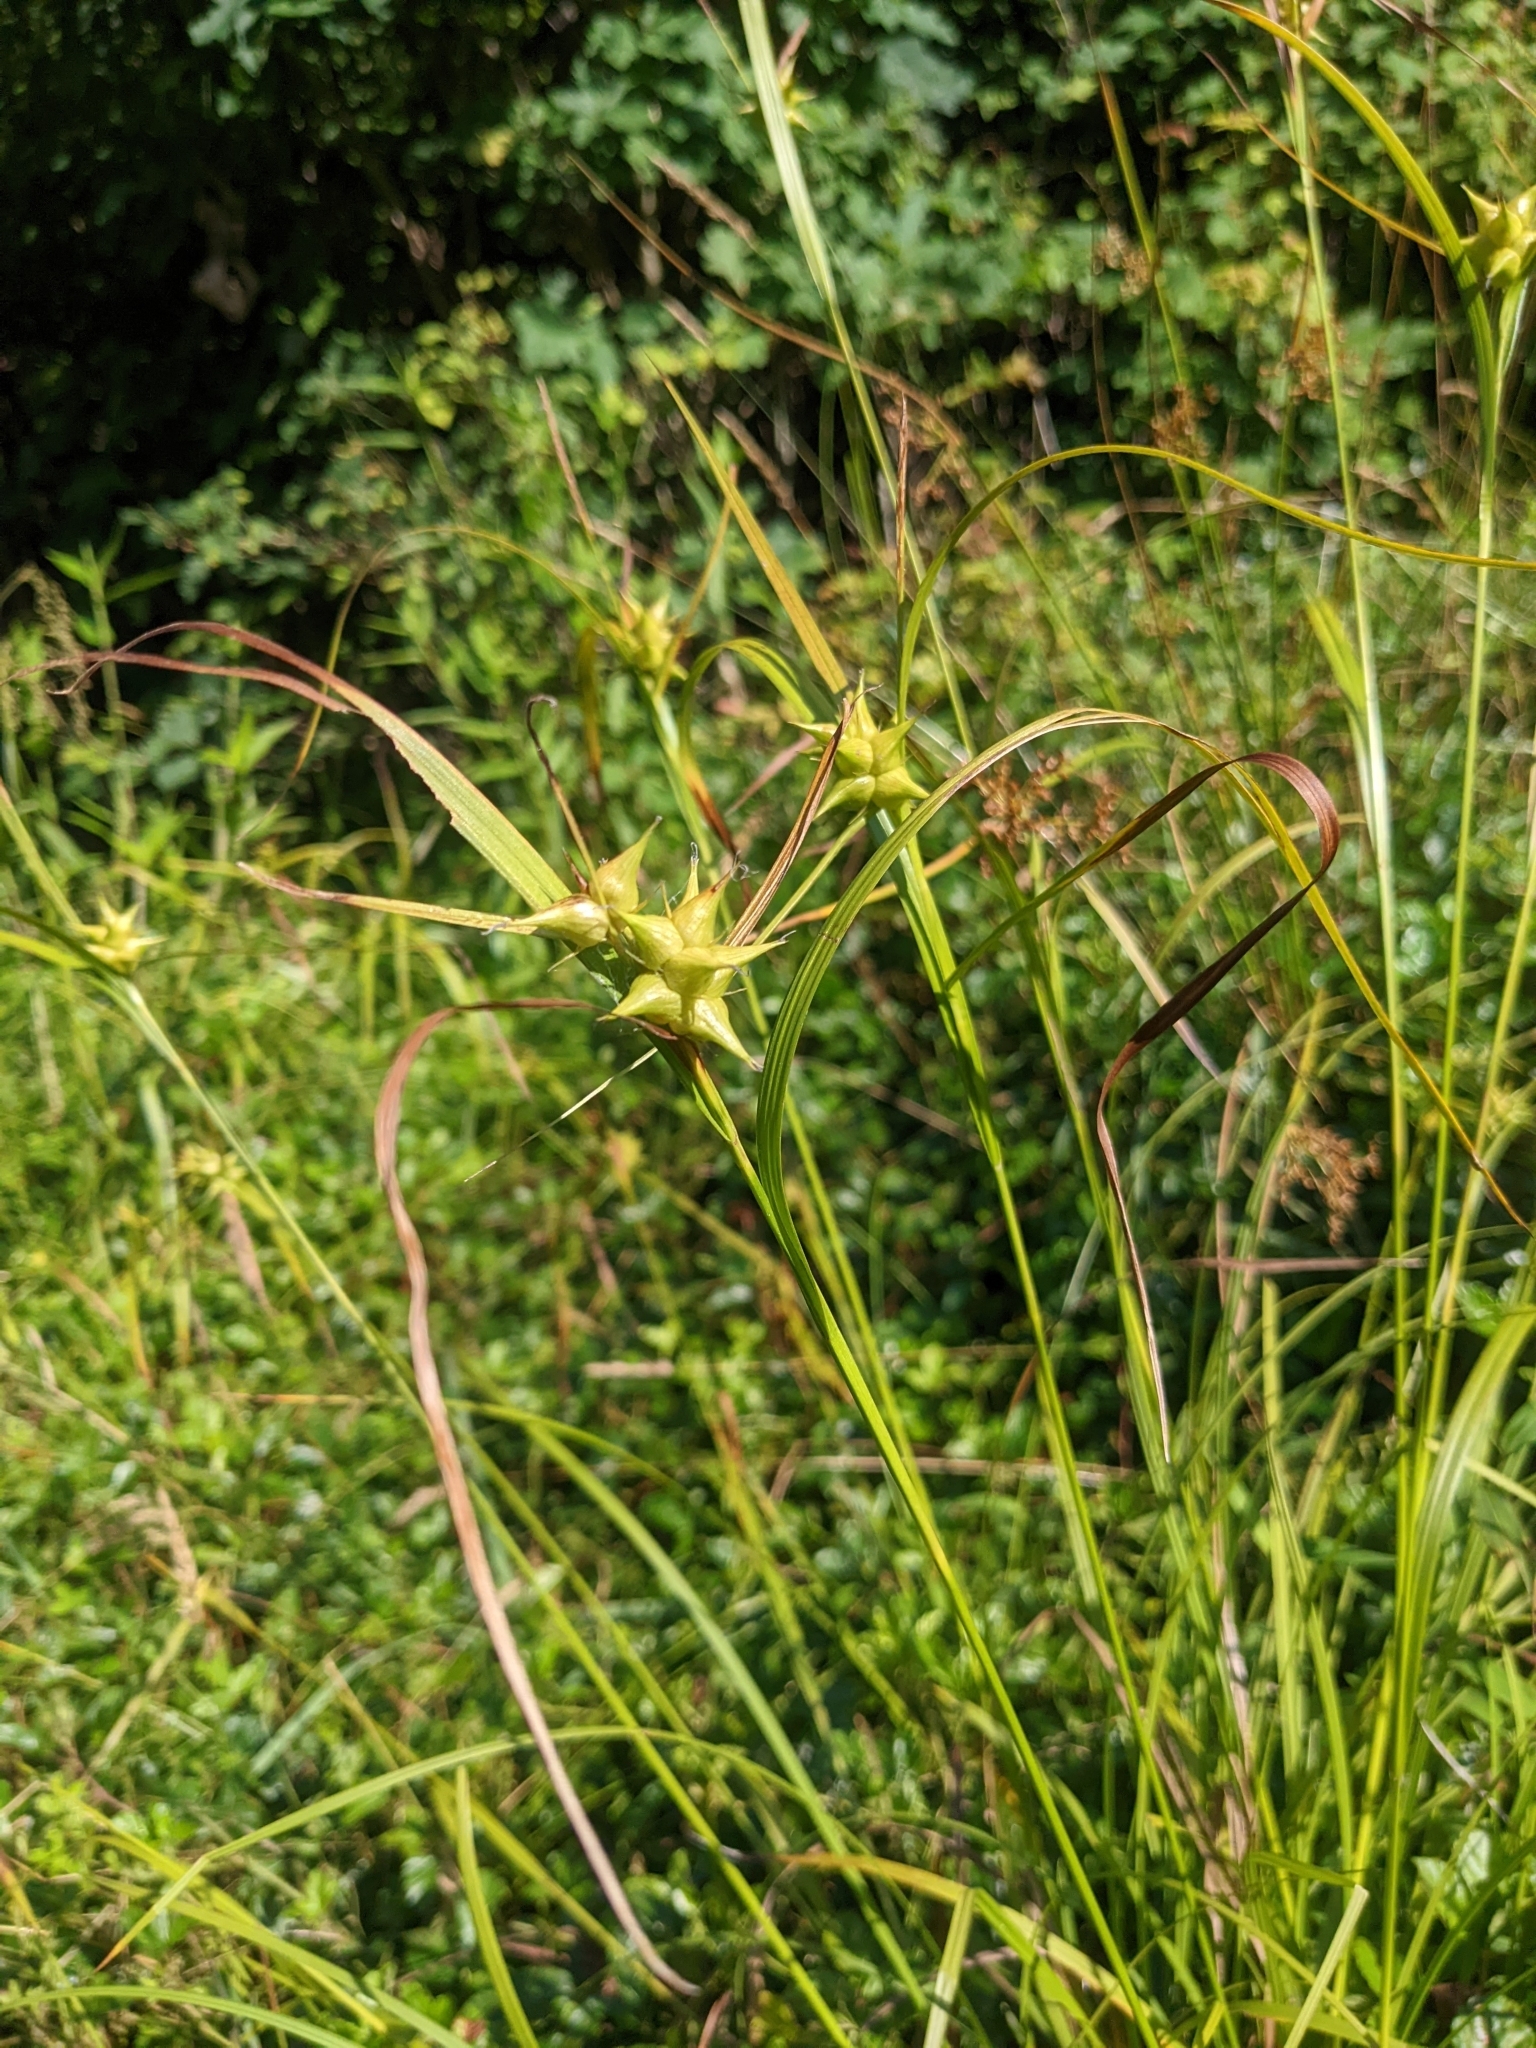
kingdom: Plantae
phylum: Tracheophyta
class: Liliopsida
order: Poales
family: Cyperaceae
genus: Carex
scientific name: Carex intumescens
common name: Greater bladder sedge
